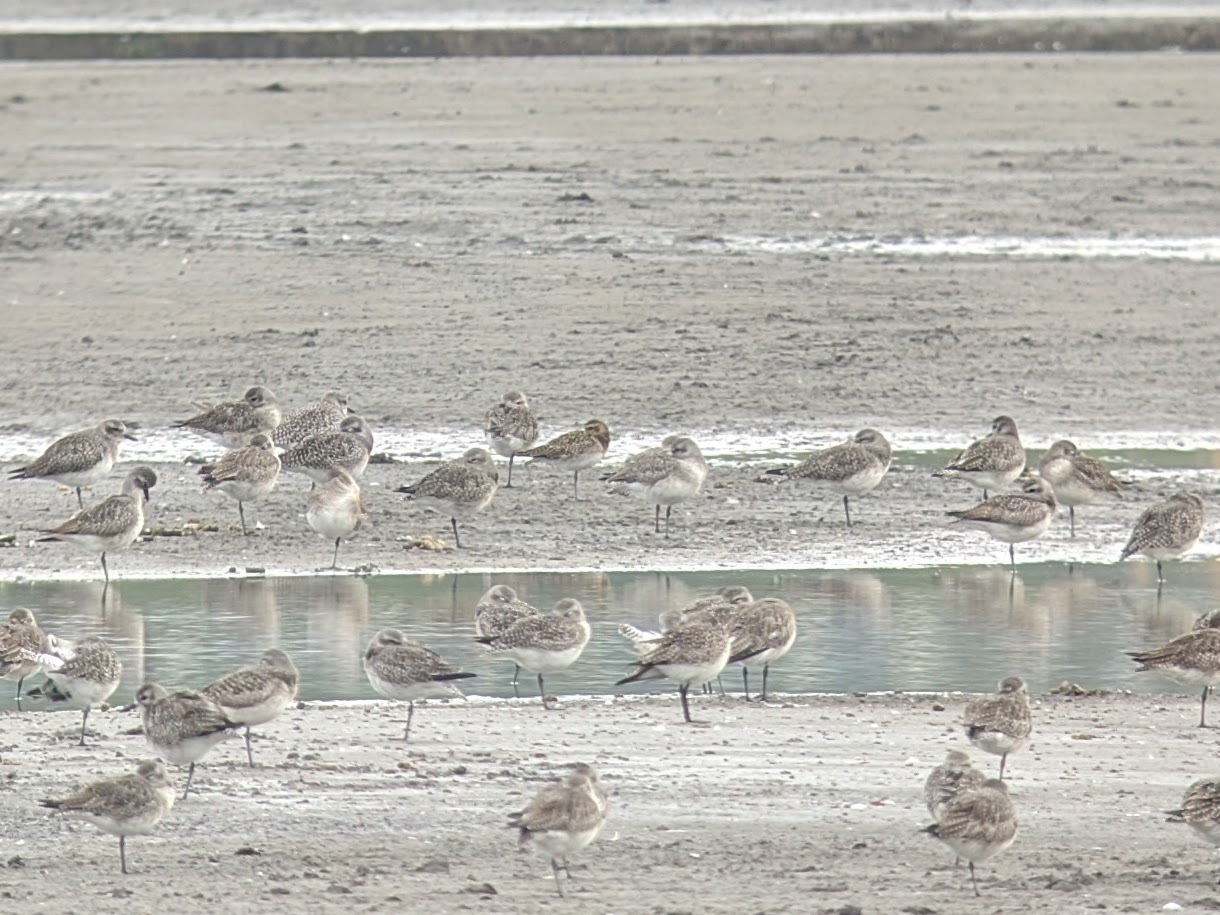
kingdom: Animalia
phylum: Chordata
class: Aves
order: Charadriiformes
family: Charadriidae
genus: Pluvialis
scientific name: Pluvialis fulva
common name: Pacific golden plover
